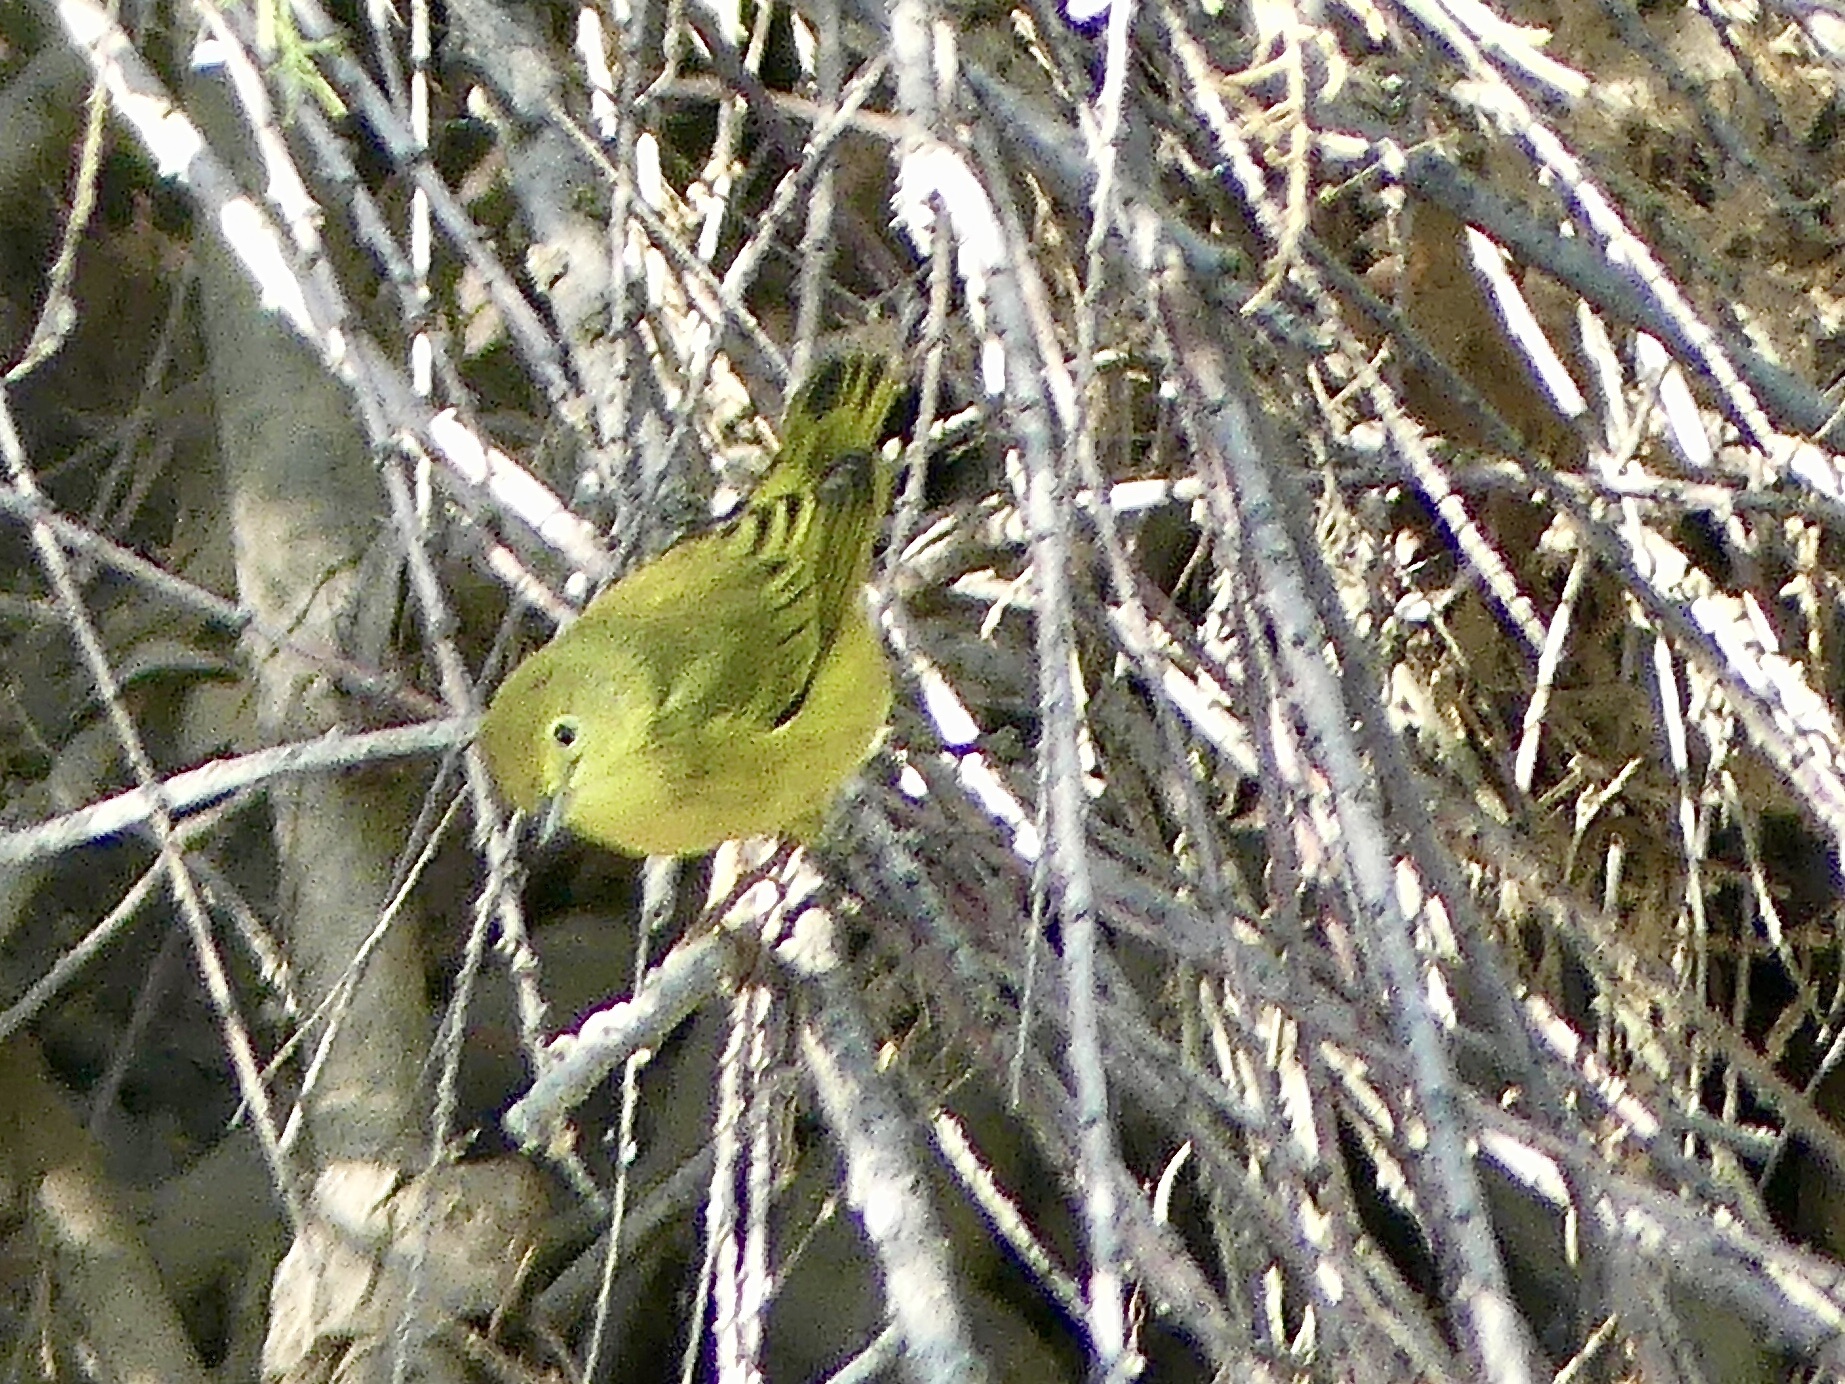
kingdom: Animalia
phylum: Chordata
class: Aves
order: Passeriformes
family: Parulidae
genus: Setophaga
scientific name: Setophaga petechia
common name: Yellow warbler
